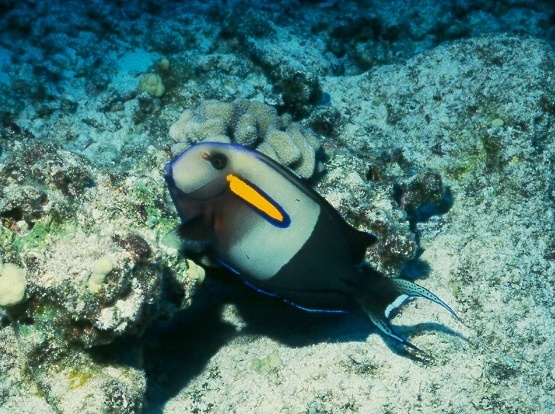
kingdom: Animalia
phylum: Chordata
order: Perciformes
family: Acanthuridae
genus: Acanthurus
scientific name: Acanthurus olivaceus
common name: Gendarme fish
